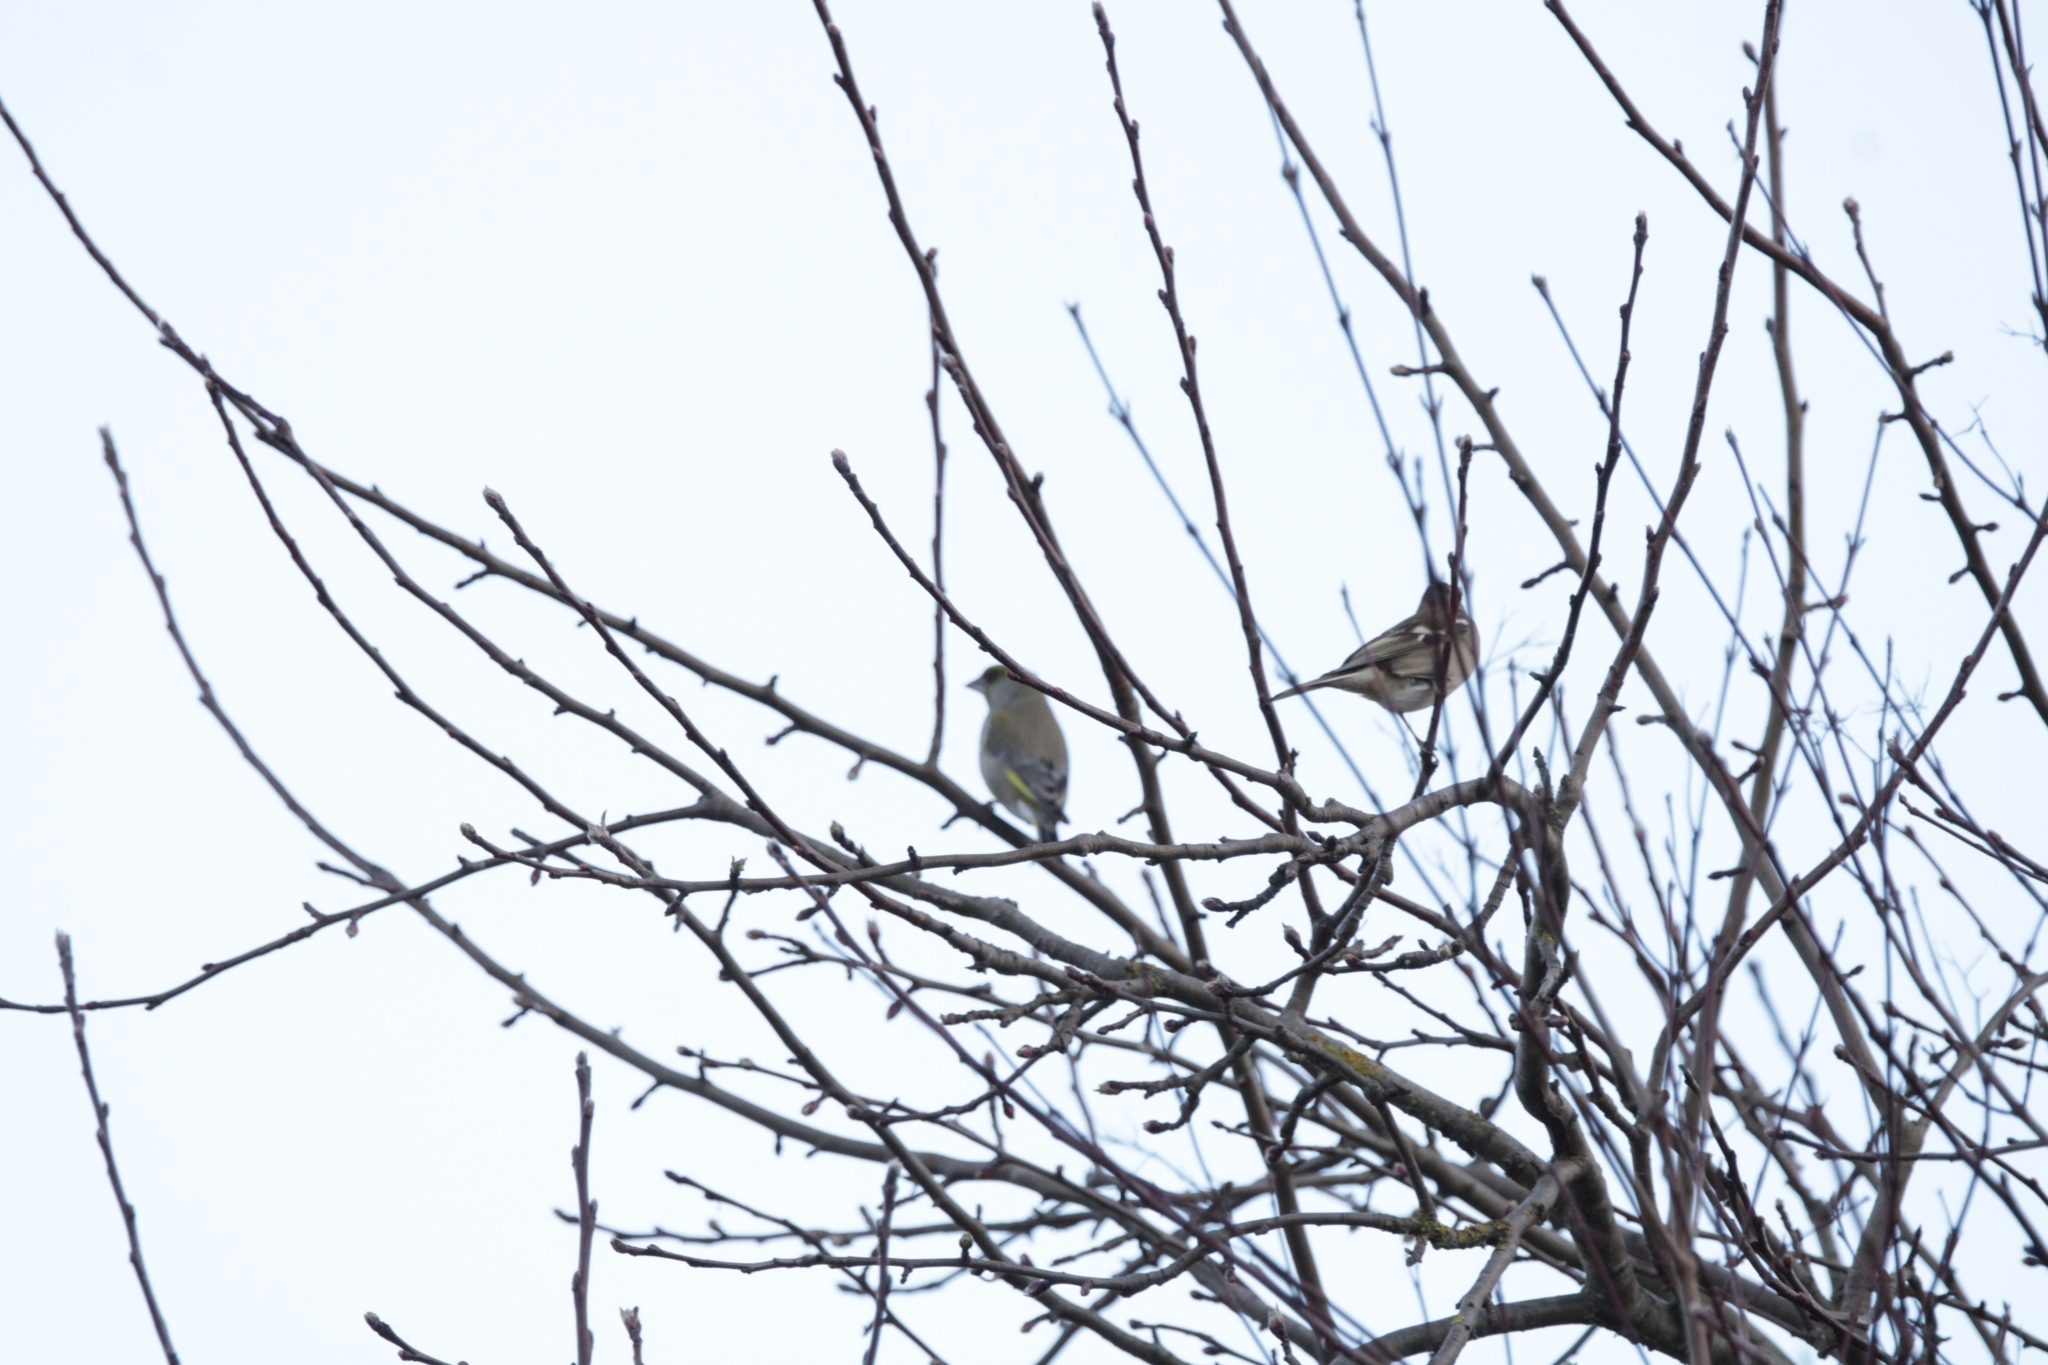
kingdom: Plantae
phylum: Tracheophyta
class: Liliopsida
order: Poales
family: Poaceae
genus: Chloris
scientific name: Chloris chloris
